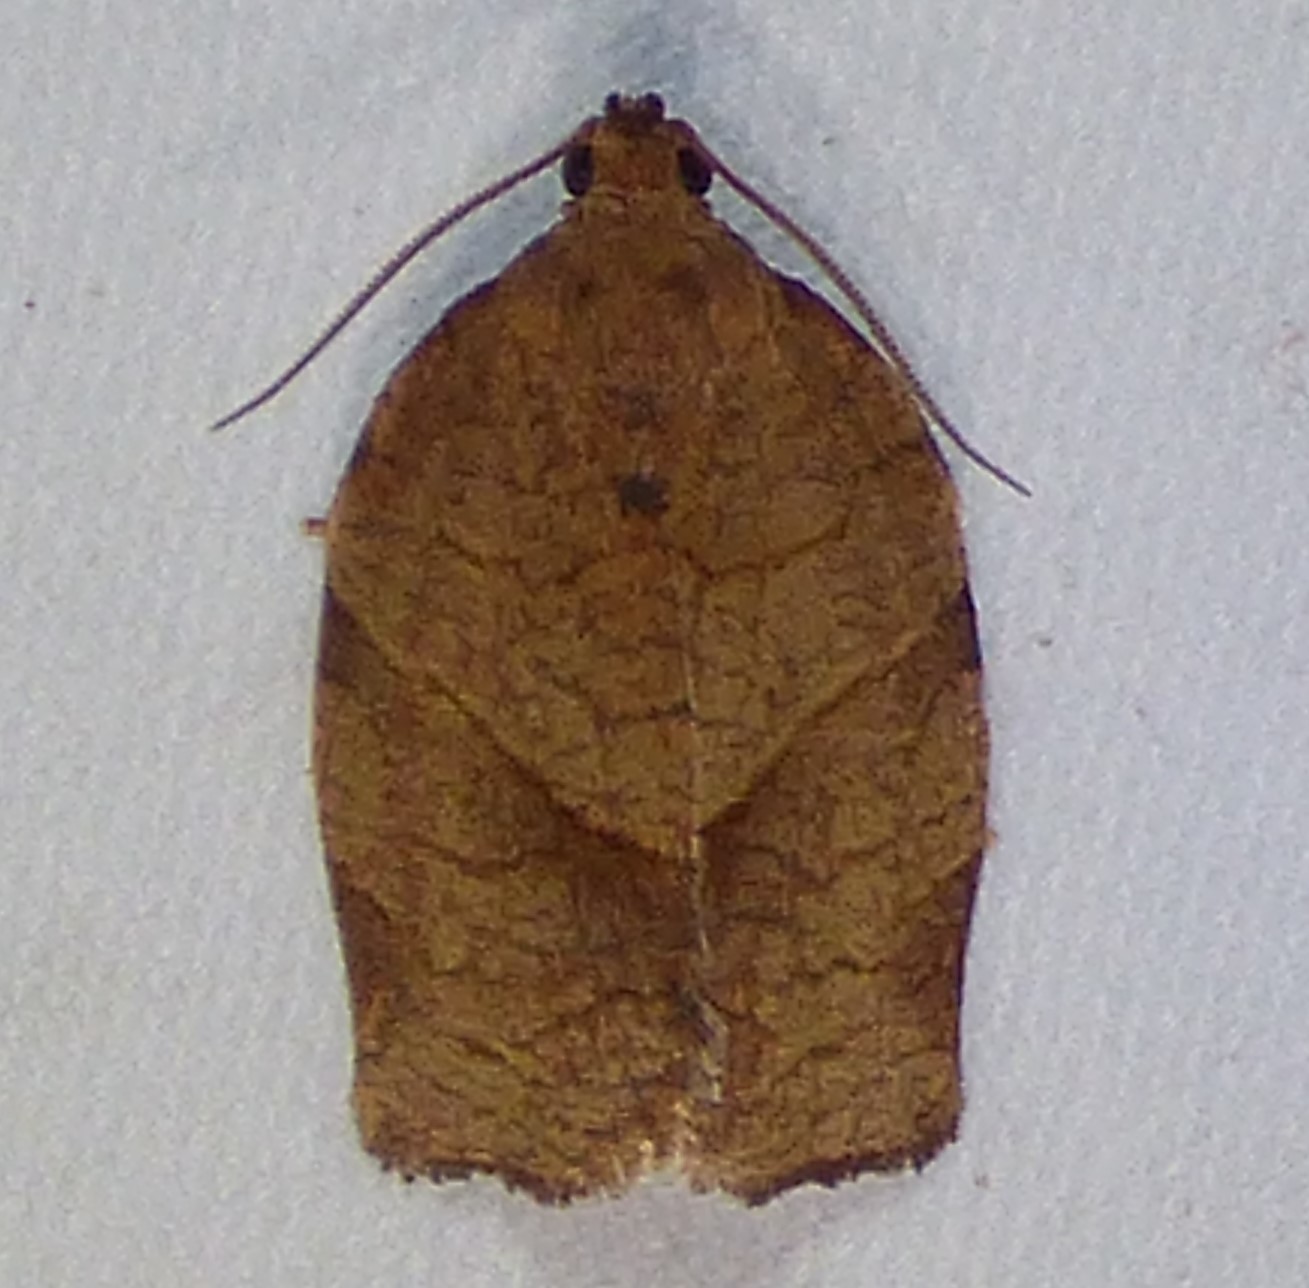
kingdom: Animalia
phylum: Arthropoda
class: Insecta
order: Lepidoptera
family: Tortricidae
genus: Choristoneura
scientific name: Choristoneura rosaceana
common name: Oblique-banded leafroller moth
